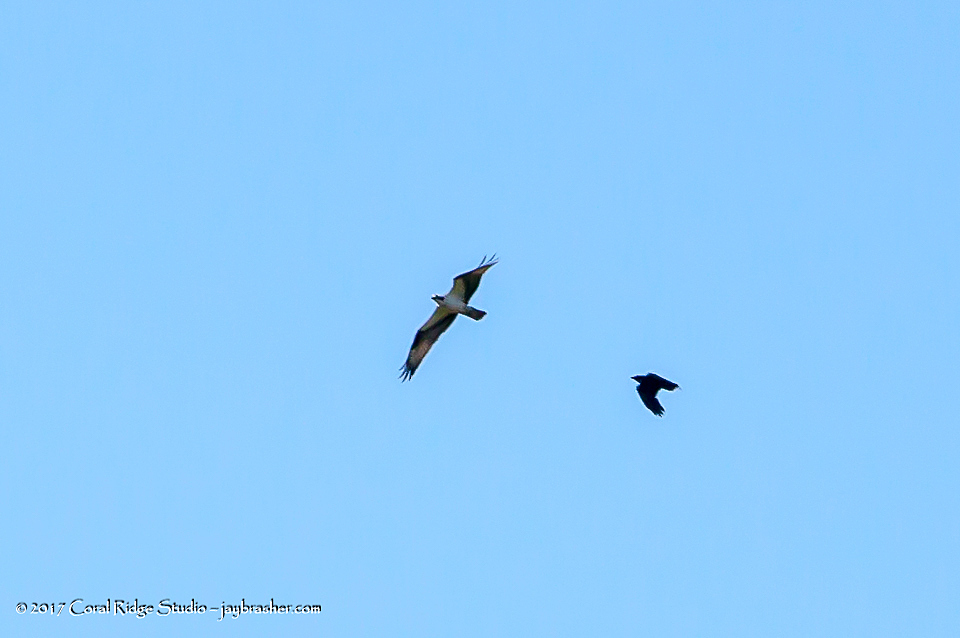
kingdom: Animalia
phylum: Chordata
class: Aves
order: Accipitriformes
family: Pandionidae
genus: Pandion
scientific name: Pandion haliaetus
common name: Osprey
